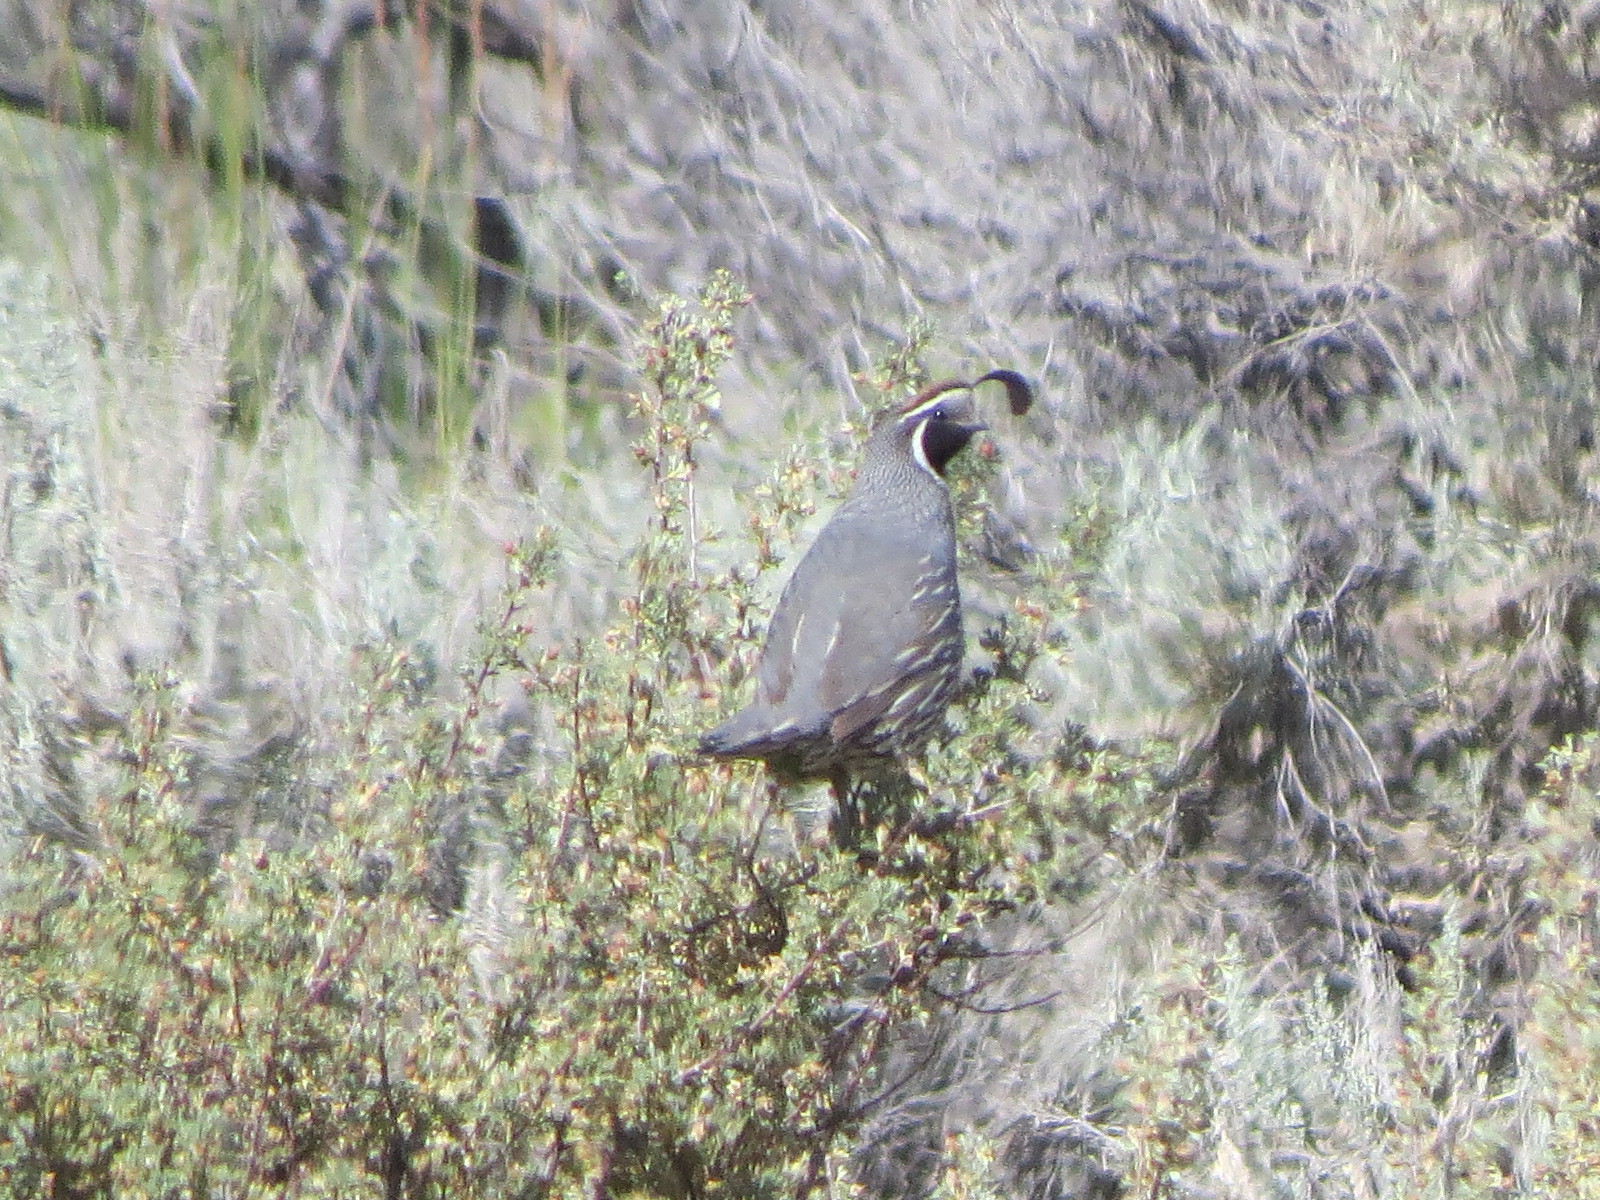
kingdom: Animalia
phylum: Chordata
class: Aves
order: Galliformes
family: Odontophoridae
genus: Callipepla
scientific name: Callipepla californica
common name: California quail
